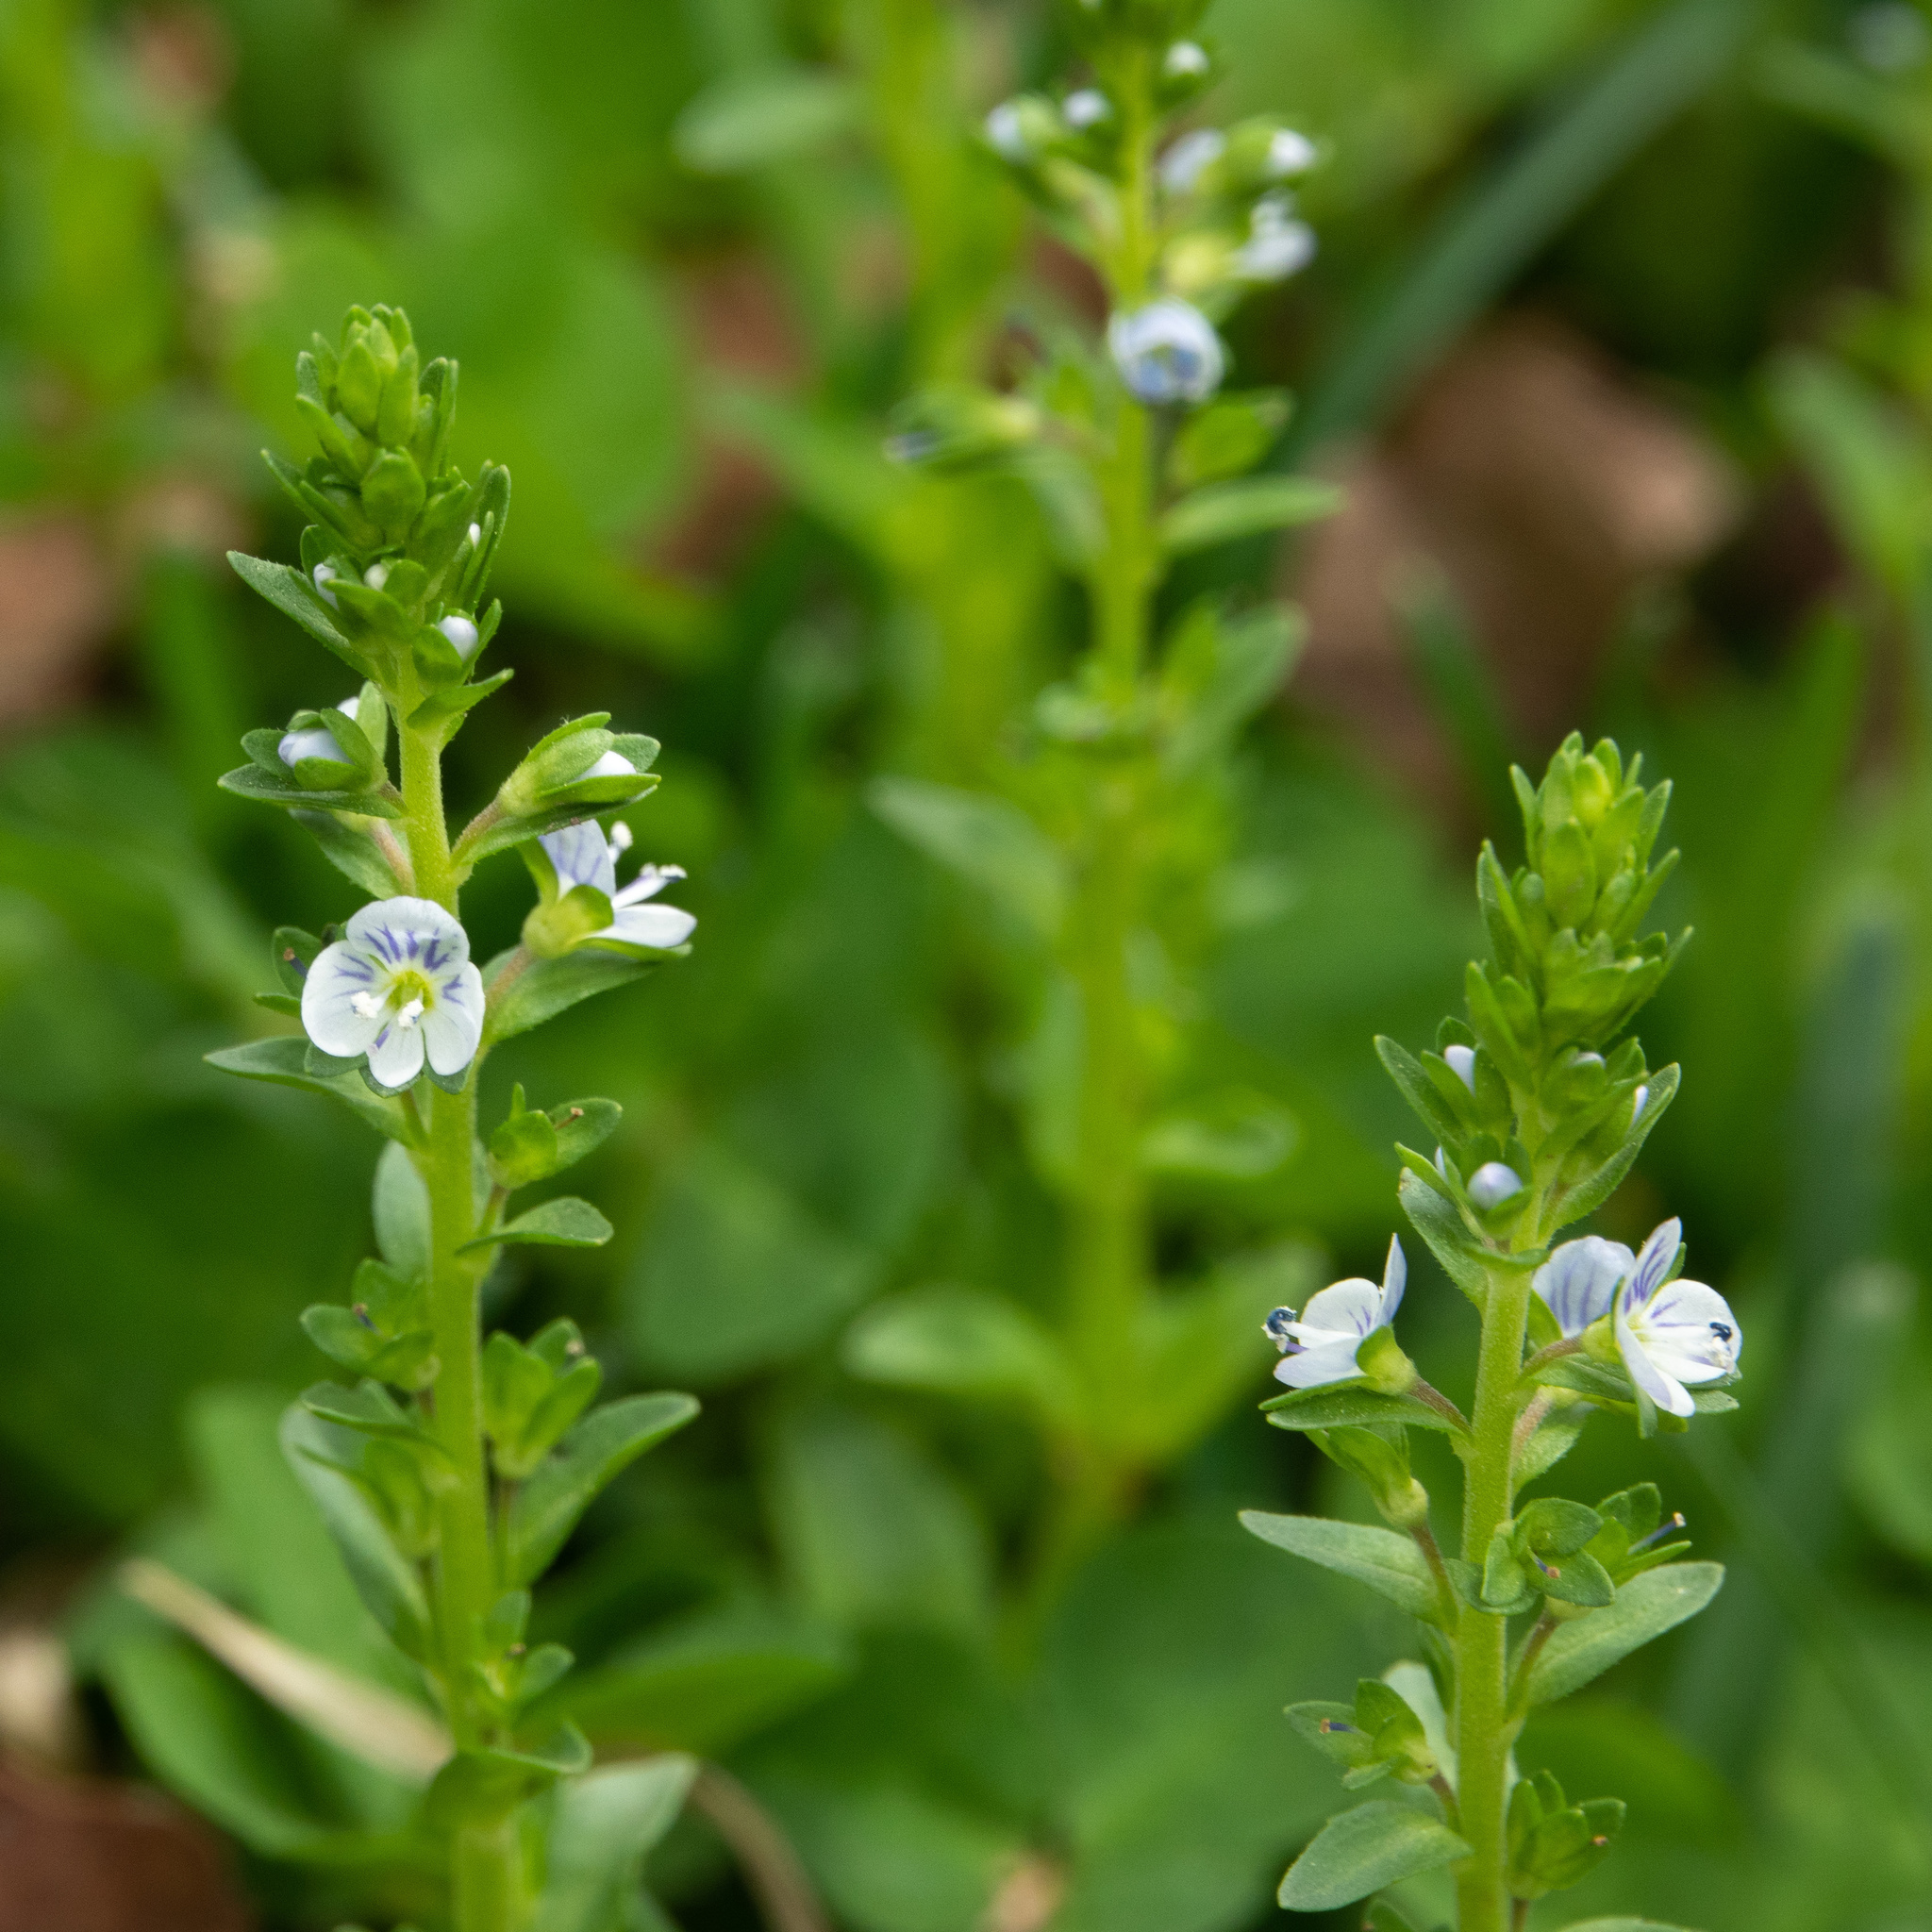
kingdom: Plantae
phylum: Tracheophyta
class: Magnoliopsida
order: Lamiales
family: Plantaginaceae
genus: Veronica
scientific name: Veronica serpyllifolia
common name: Thyme-leaved speedwell
